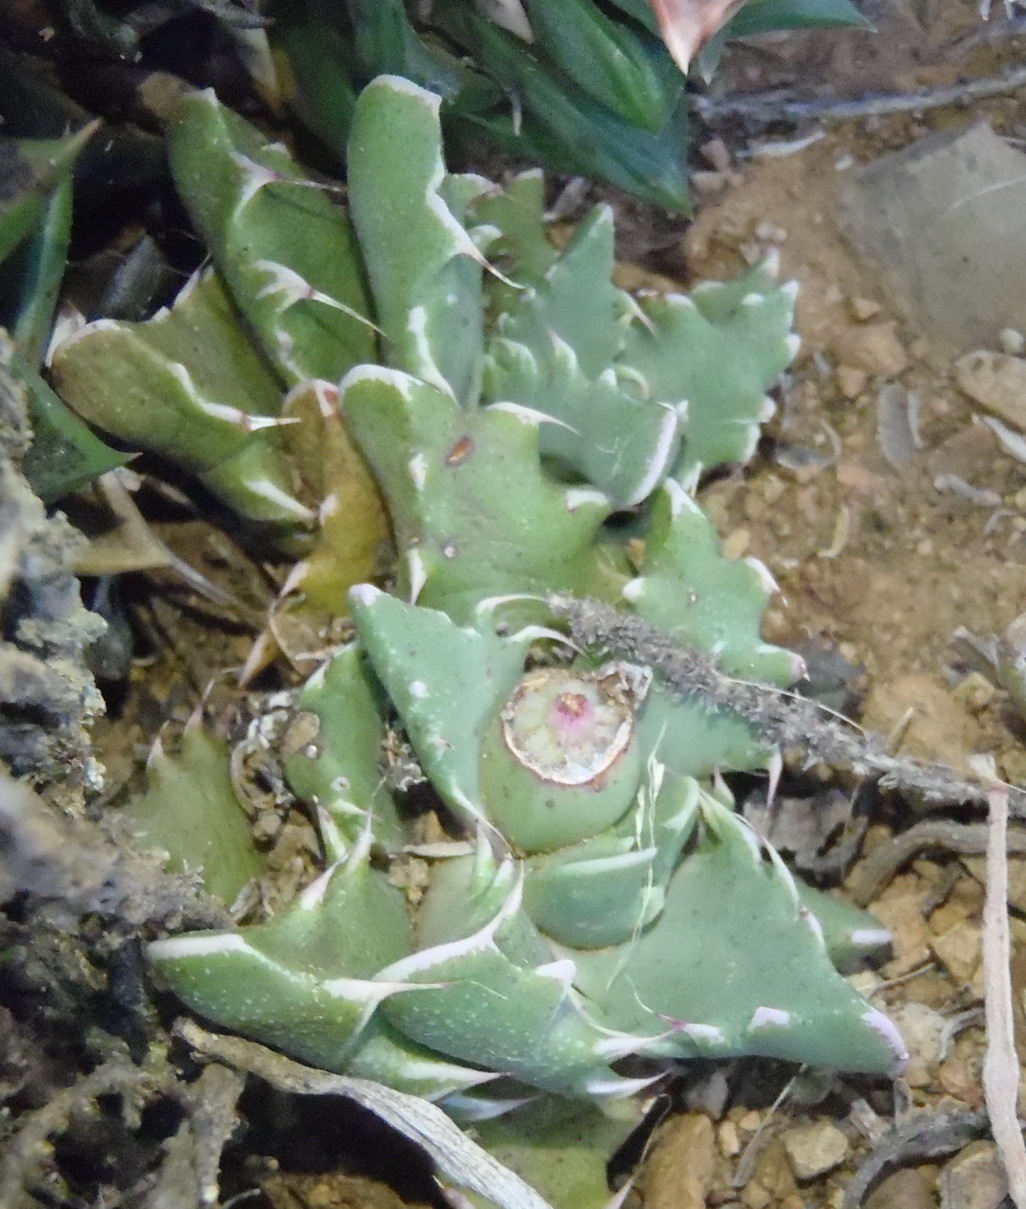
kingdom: Plantae
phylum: Tracheophyta
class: Magnoliopsida
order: Caryophyllales
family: Aizoaceae
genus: Faucaria
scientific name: Faucaria bosscheana
